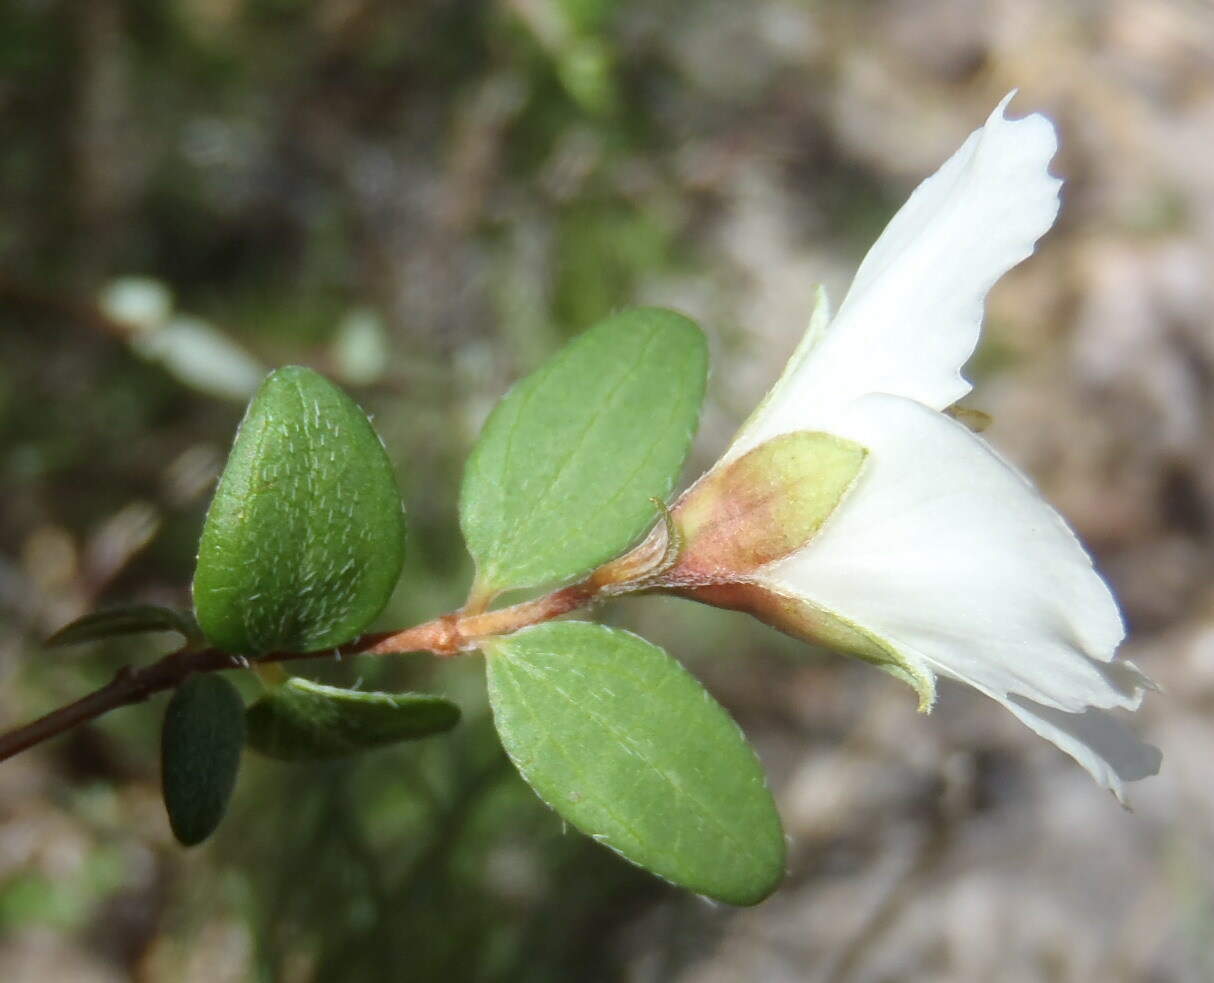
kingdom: Plantae
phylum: Tracheophyta
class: Magnoliopsida
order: Cornales
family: Hydrangeaceae
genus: Philadelphus
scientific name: Philadelphus microphyllus
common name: Desert mock orange
